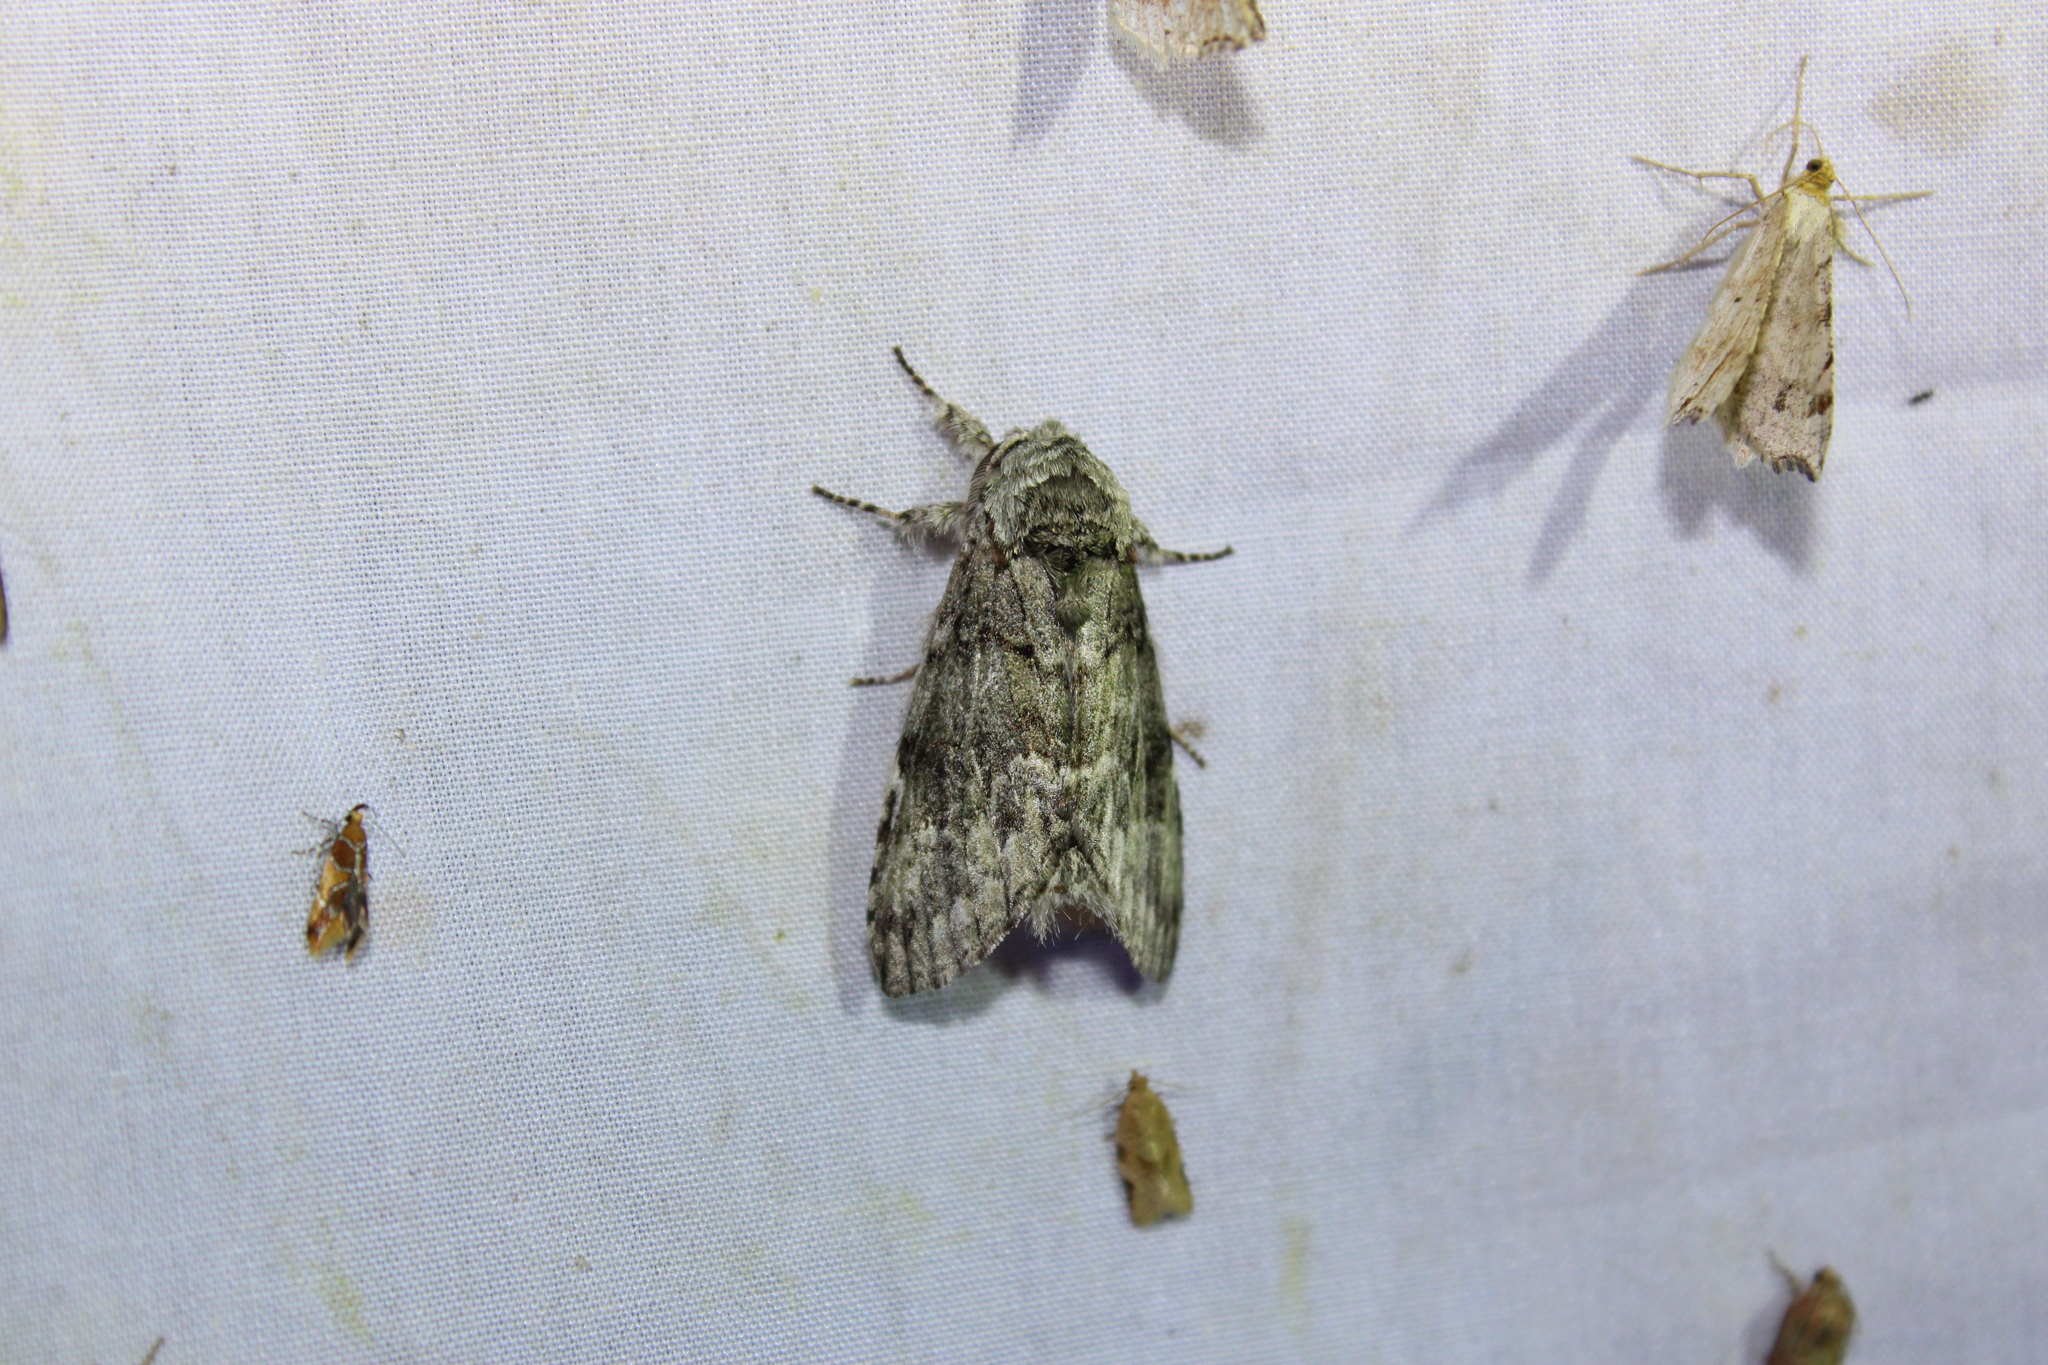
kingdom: Animalia
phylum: Arthropoda
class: Insecta
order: Lepidoptera
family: Notodontidae
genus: Macrurocampa
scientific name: Macrurocampa marthesia
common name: Mottled prominent
